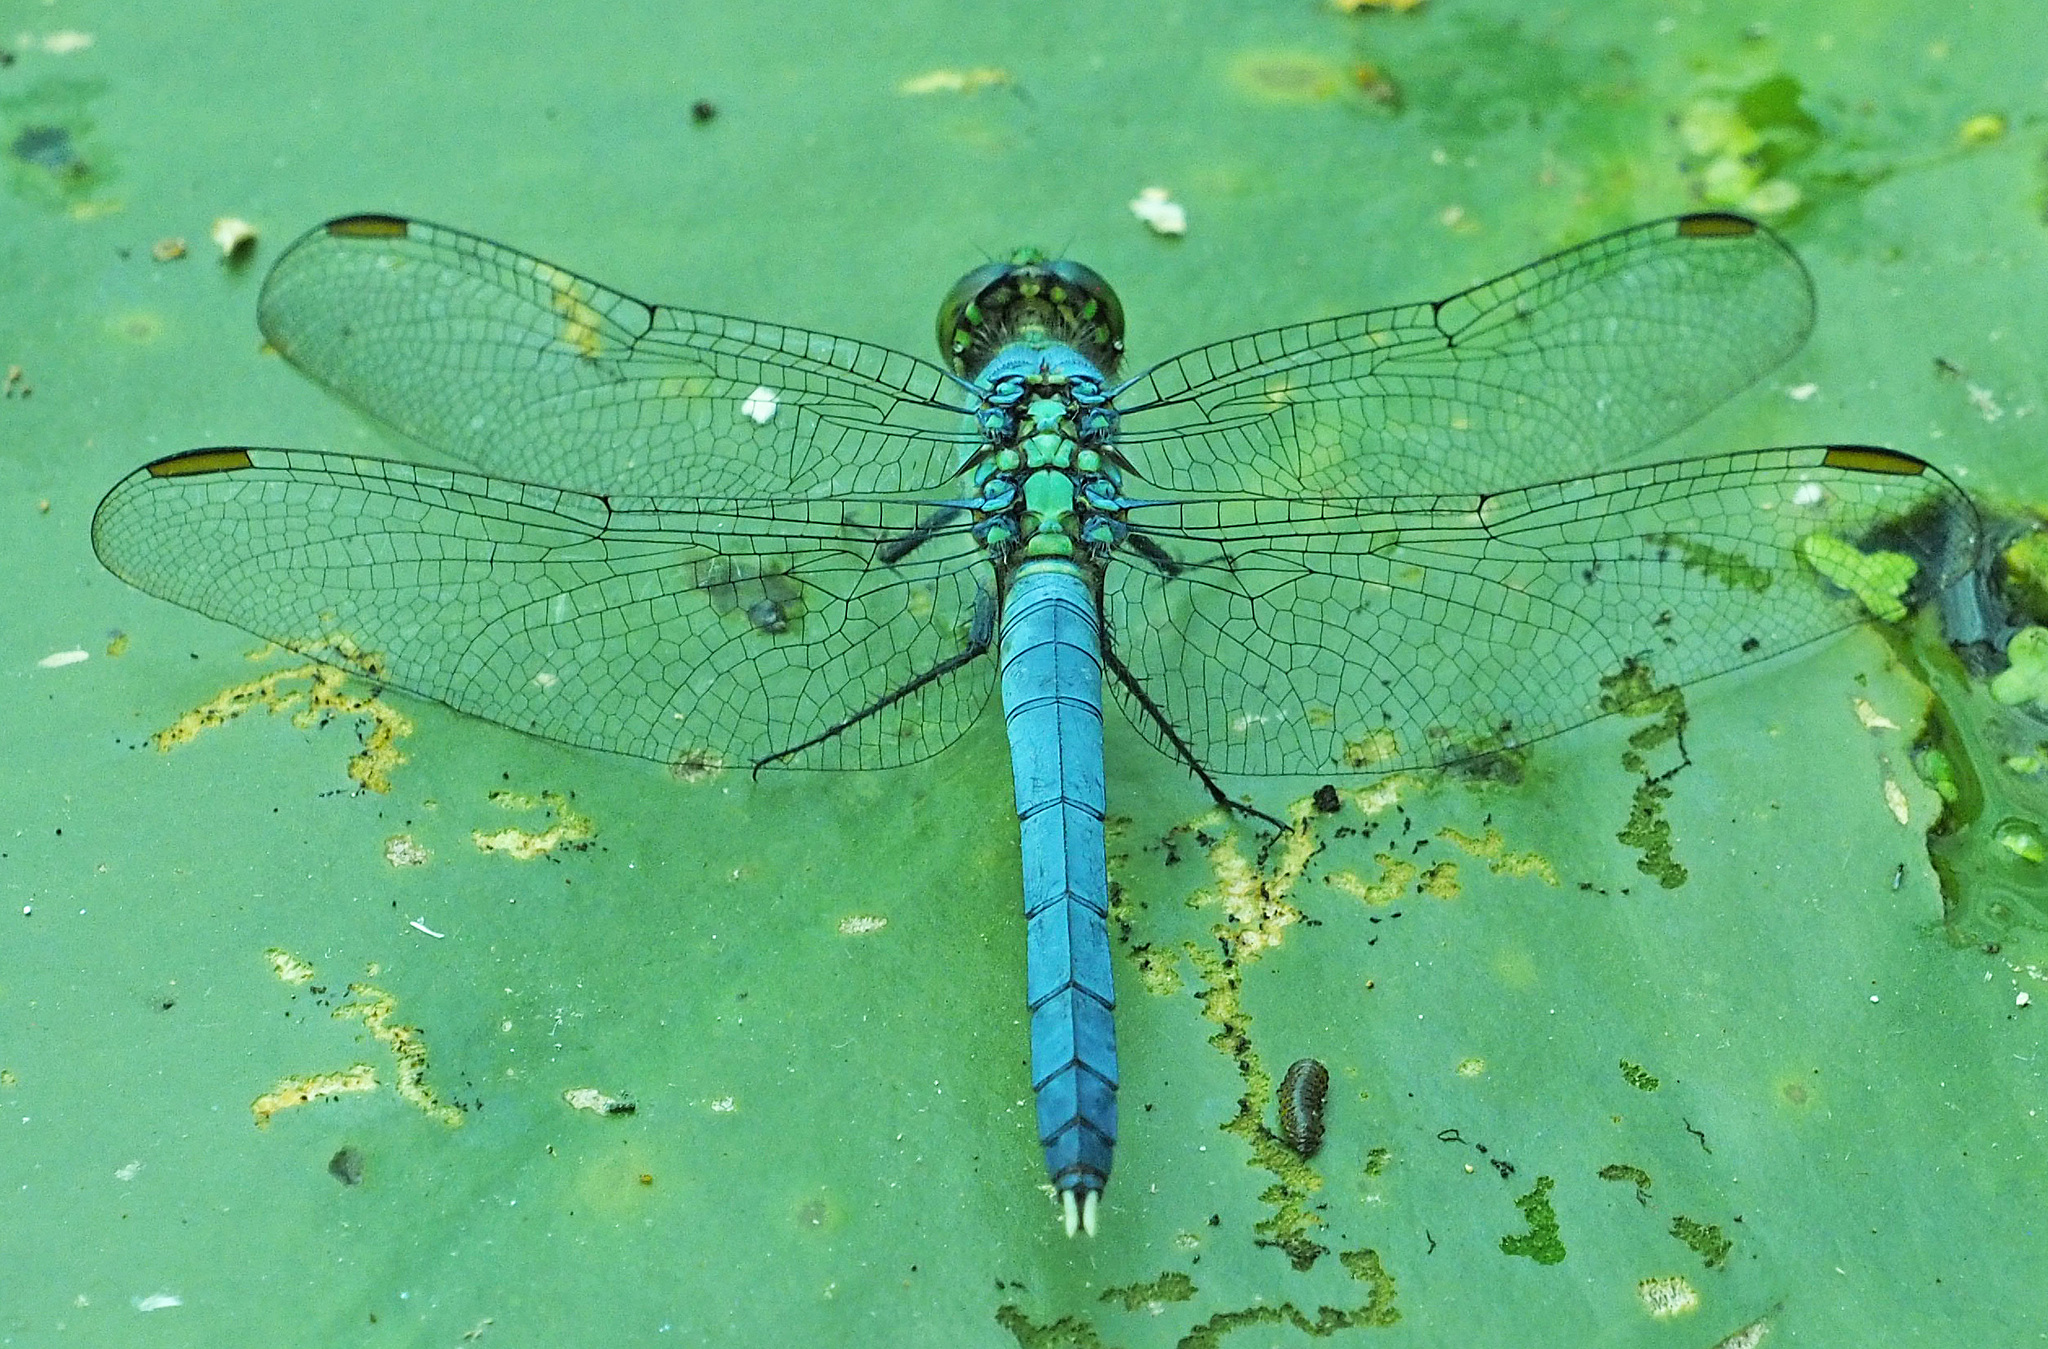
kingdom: Animalia
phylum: Arthropoda
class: Insecta
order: Odonata
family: Libellulidae
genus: Erythemis
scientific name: Erythemis simplicicollis
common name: Eastern pondhawk
